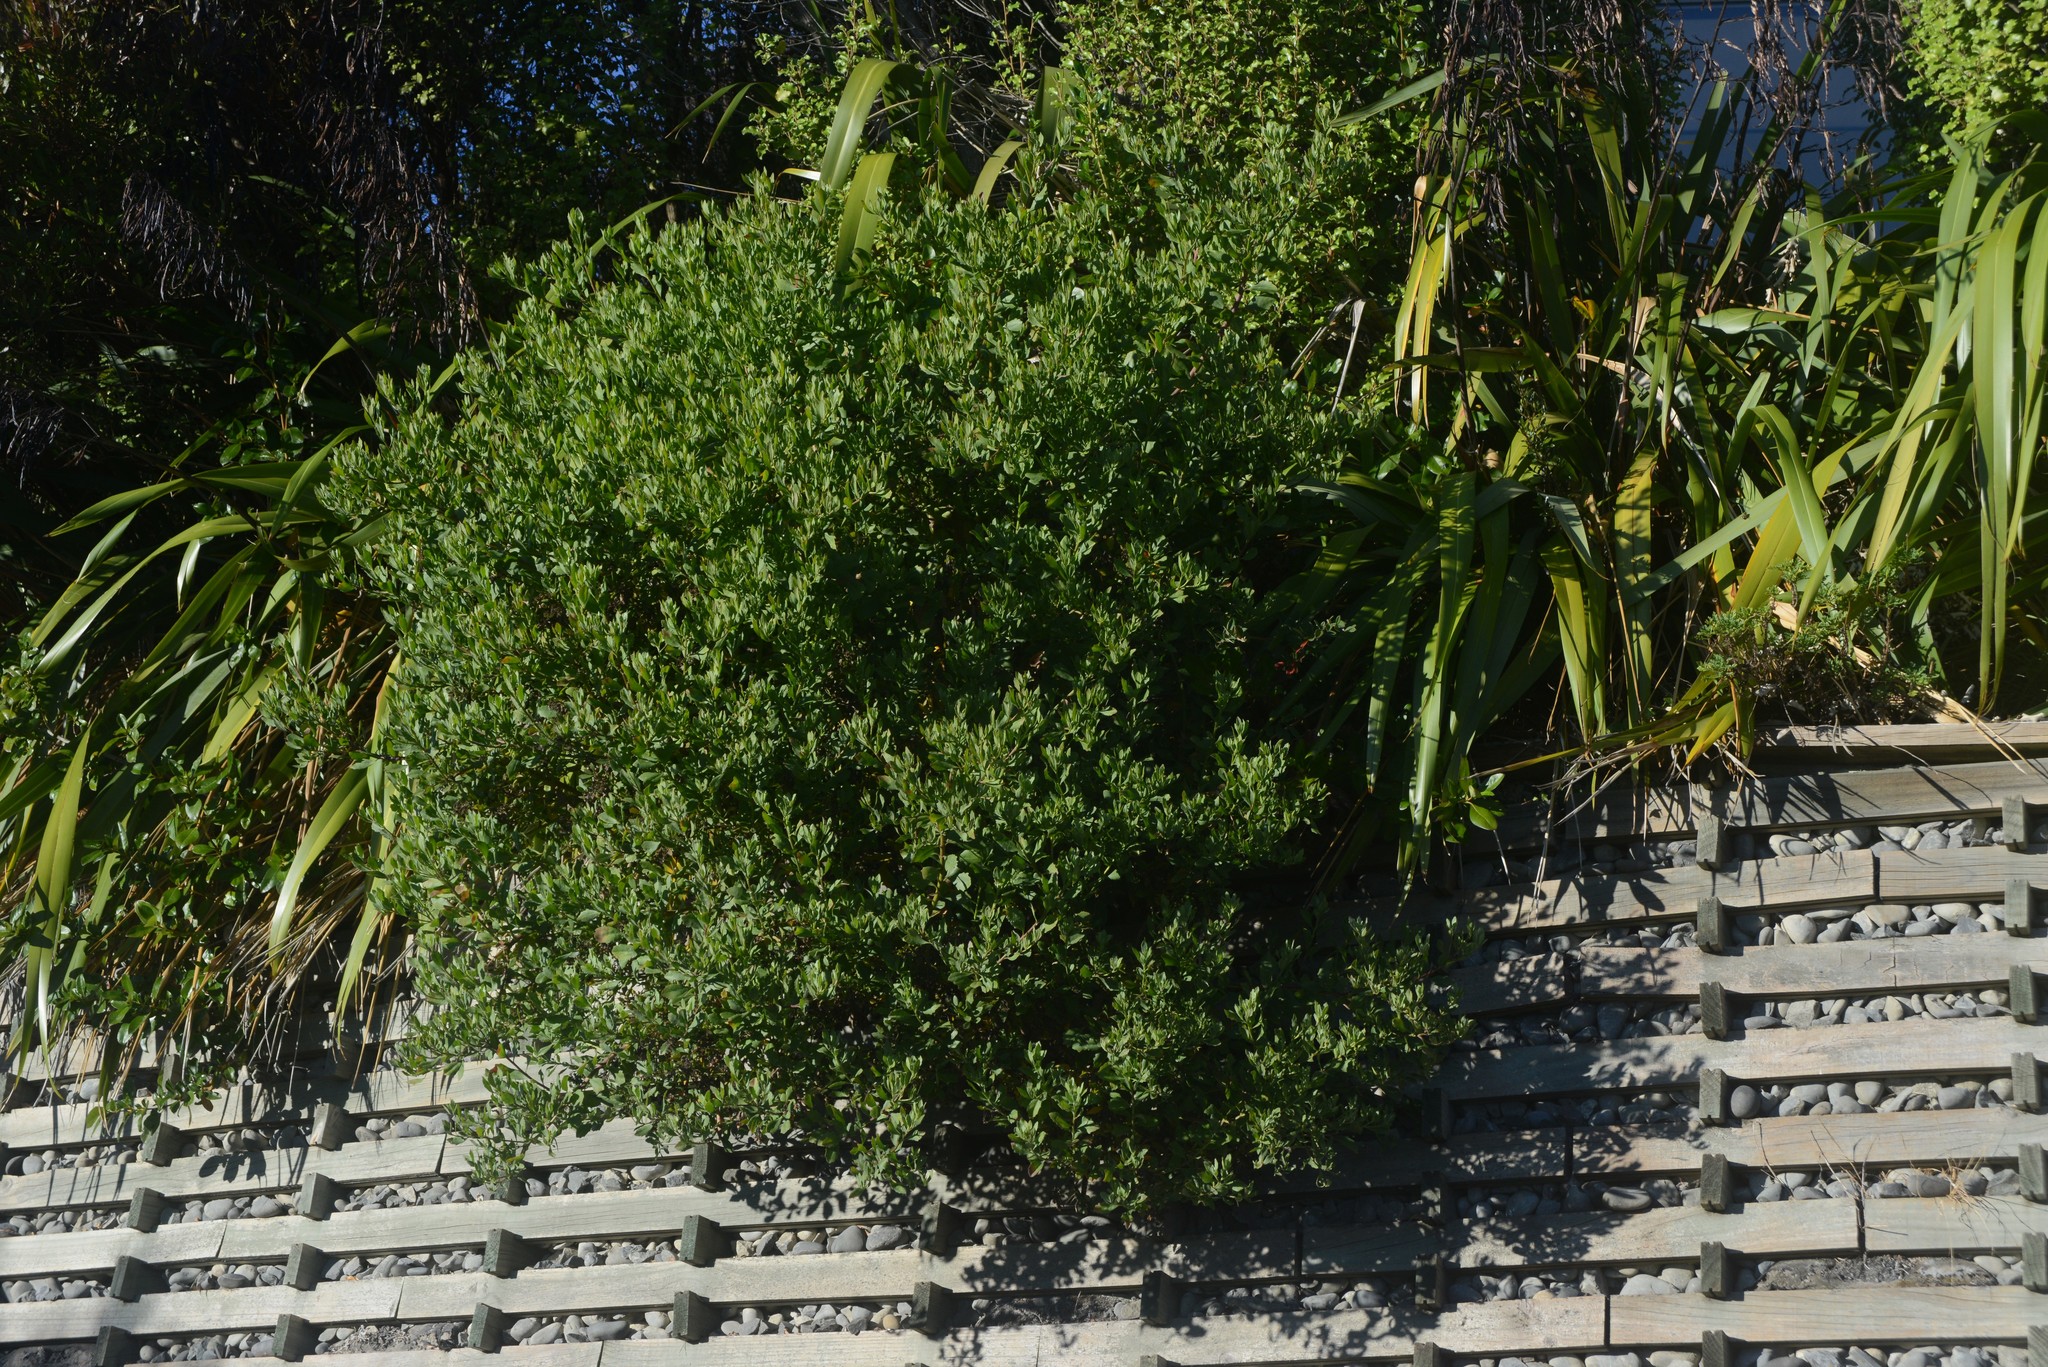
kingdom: Plantae
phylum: Tracheophyta
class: Magnoliopsida
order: Asterales
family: Asteraceae
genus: Osteospermum
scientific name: Osteospermum moniliferum
